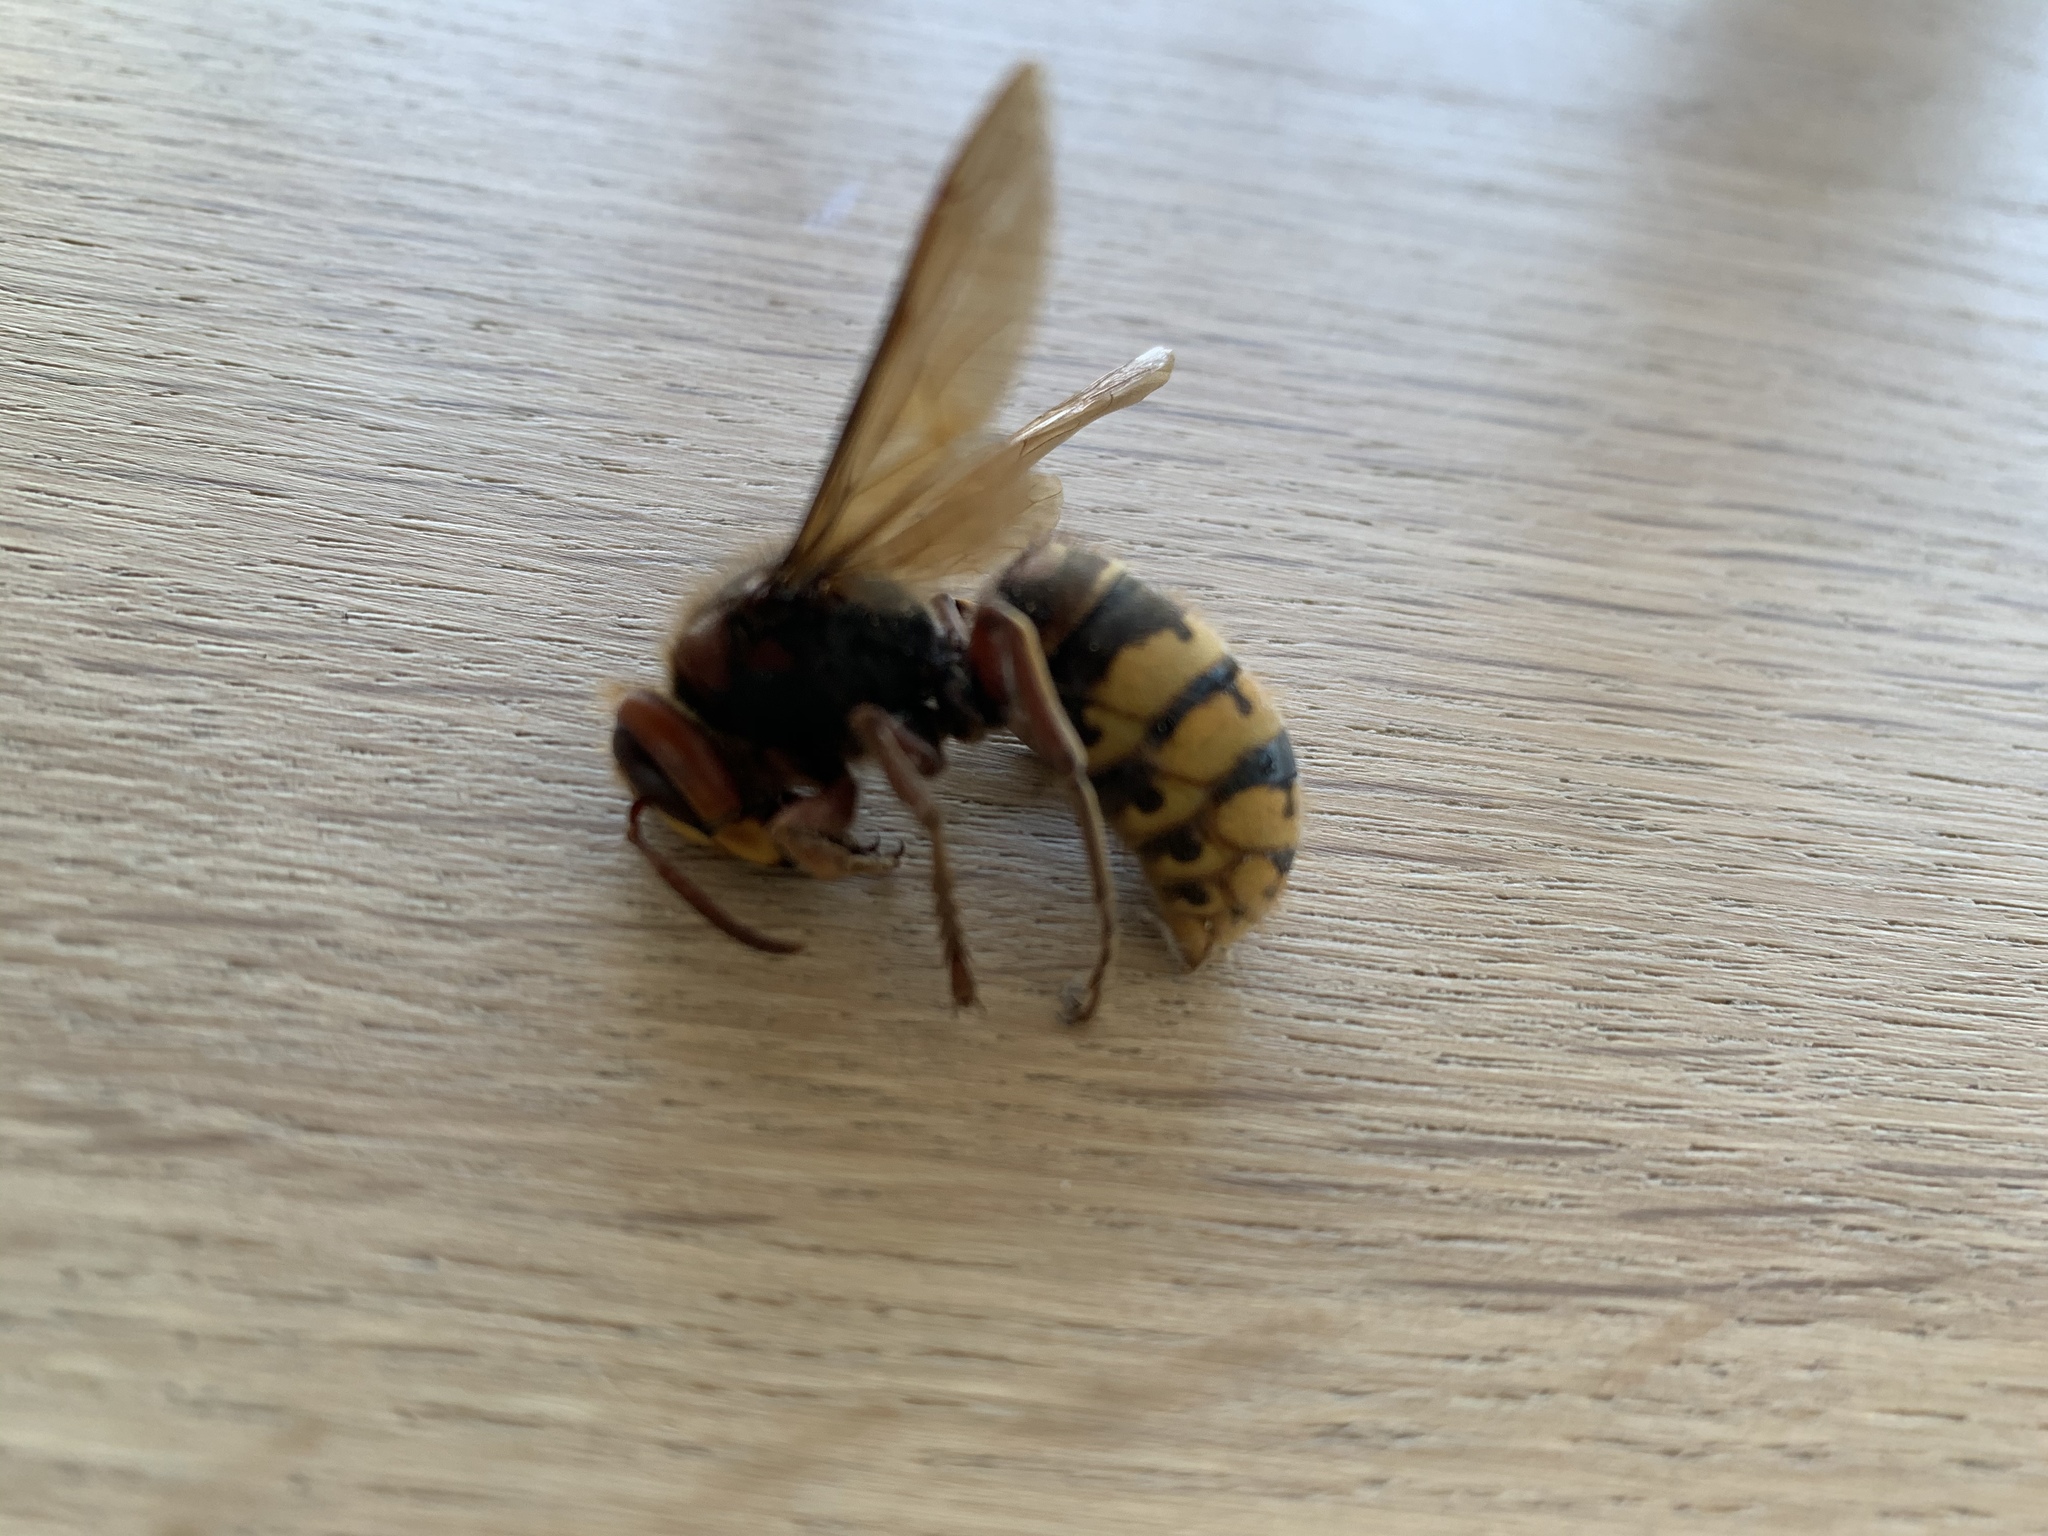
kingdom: Animalia
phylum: Arthropoda
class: Insecta
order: Hymenoptera
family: Vespidae
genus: Vespa
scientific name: Vespa crabro
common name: Hornet
